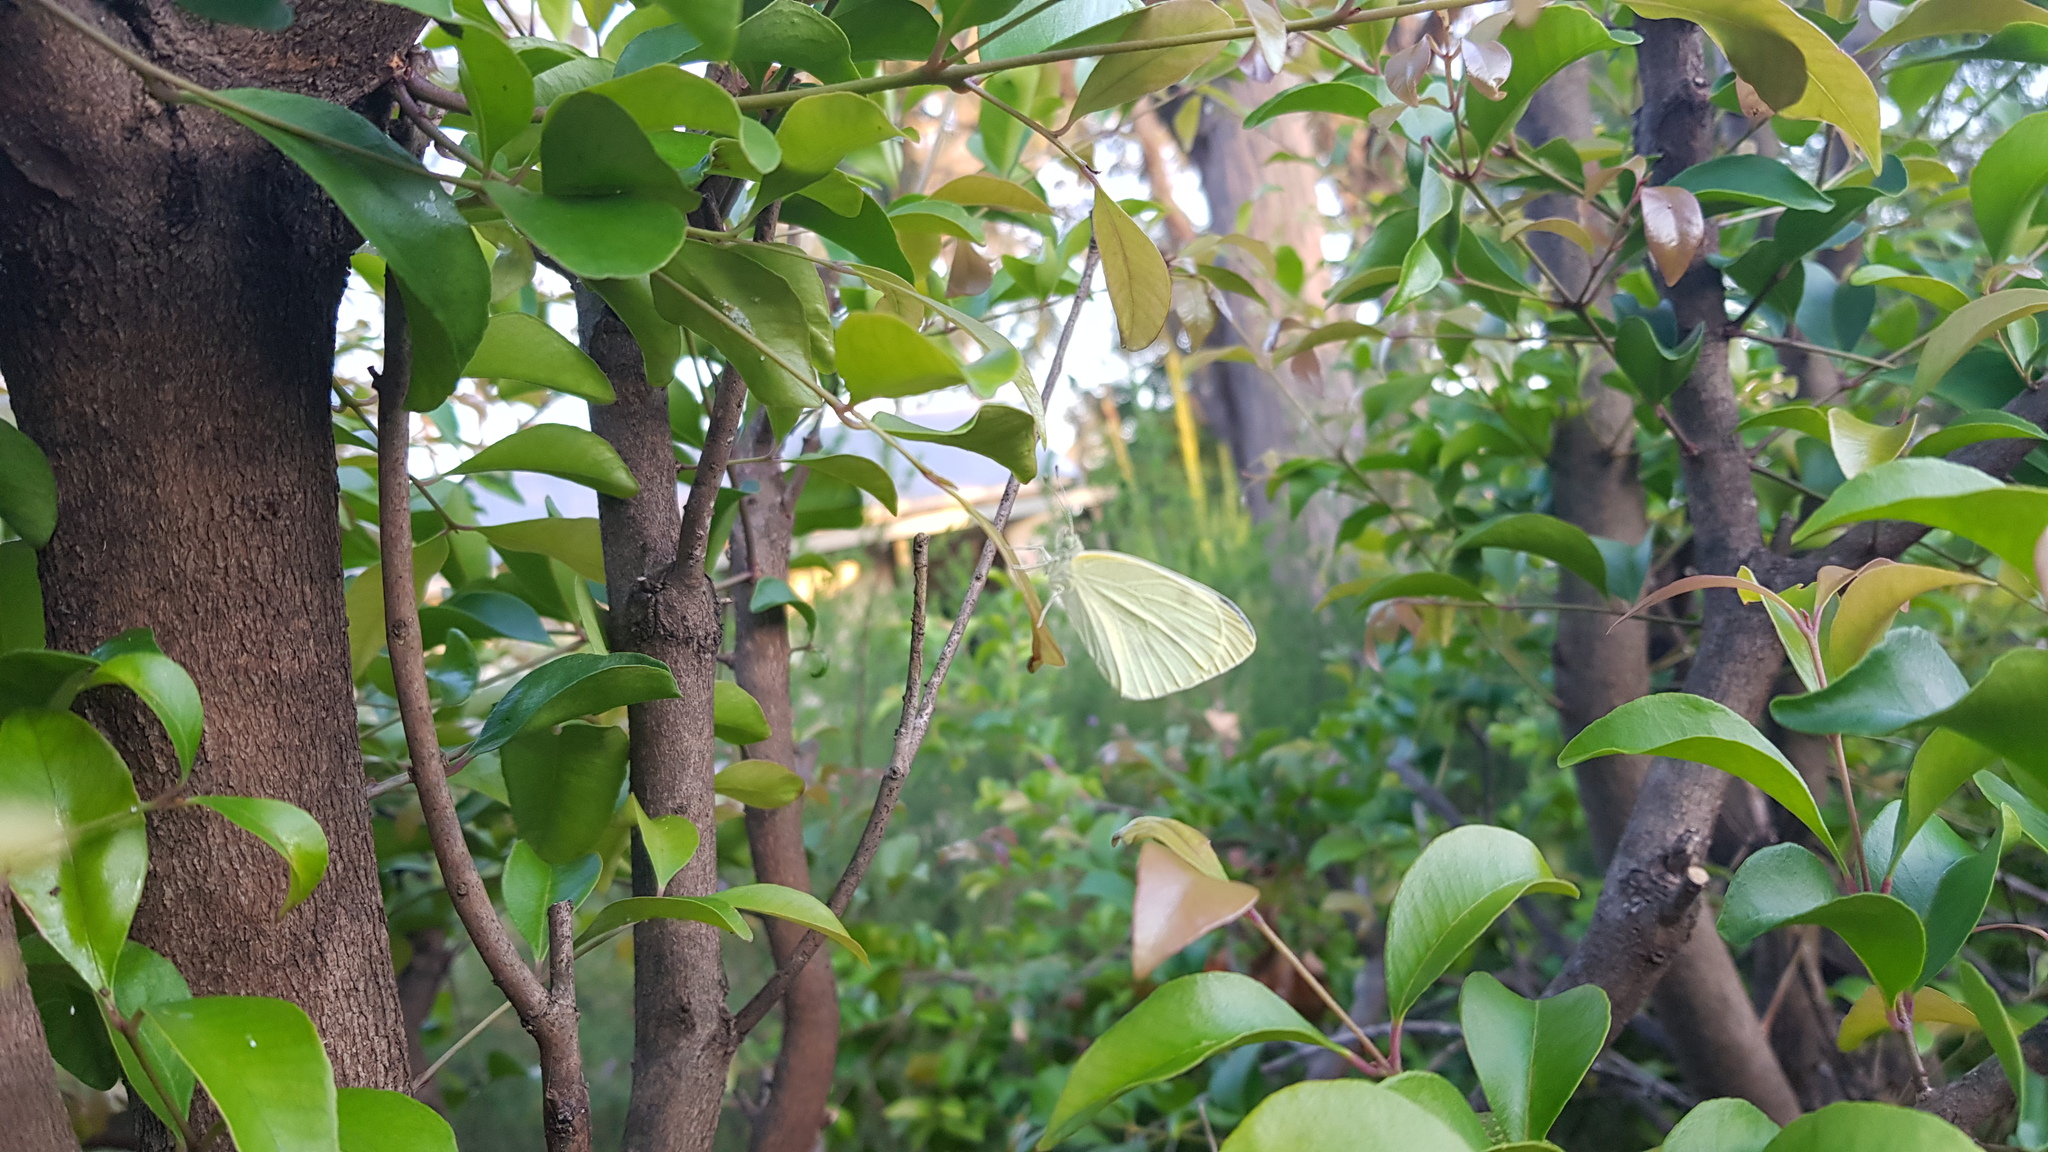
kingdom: Animalia
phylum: Arthropoda
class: Insecta
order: Lepidoptera
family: Pieridae
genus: Pieris
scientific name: Pieris rapae
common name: Small white
